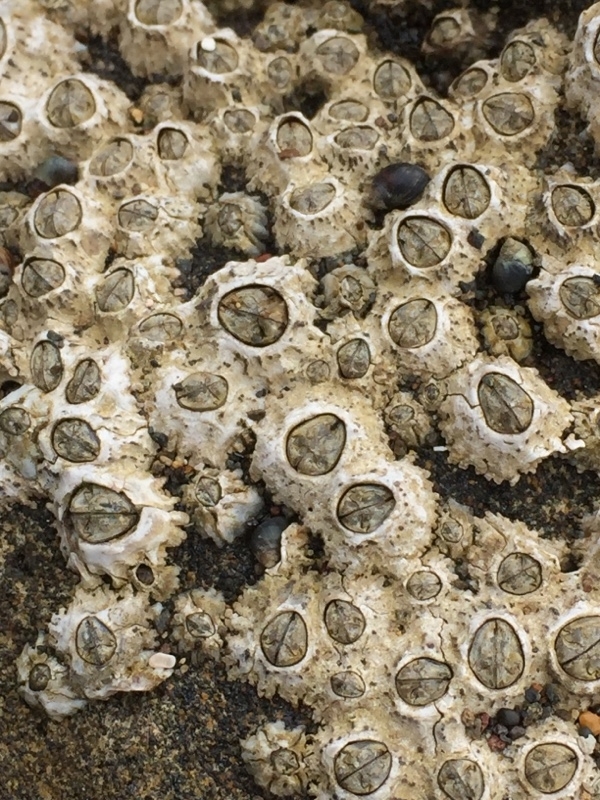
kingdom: Animalia
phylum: Arthropoda
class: Maxillopoda
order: Sessilia
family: Chthamalidae
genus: Chthamalus
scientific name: Chthamalus stellatus
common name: Poli's stellate barnacle
